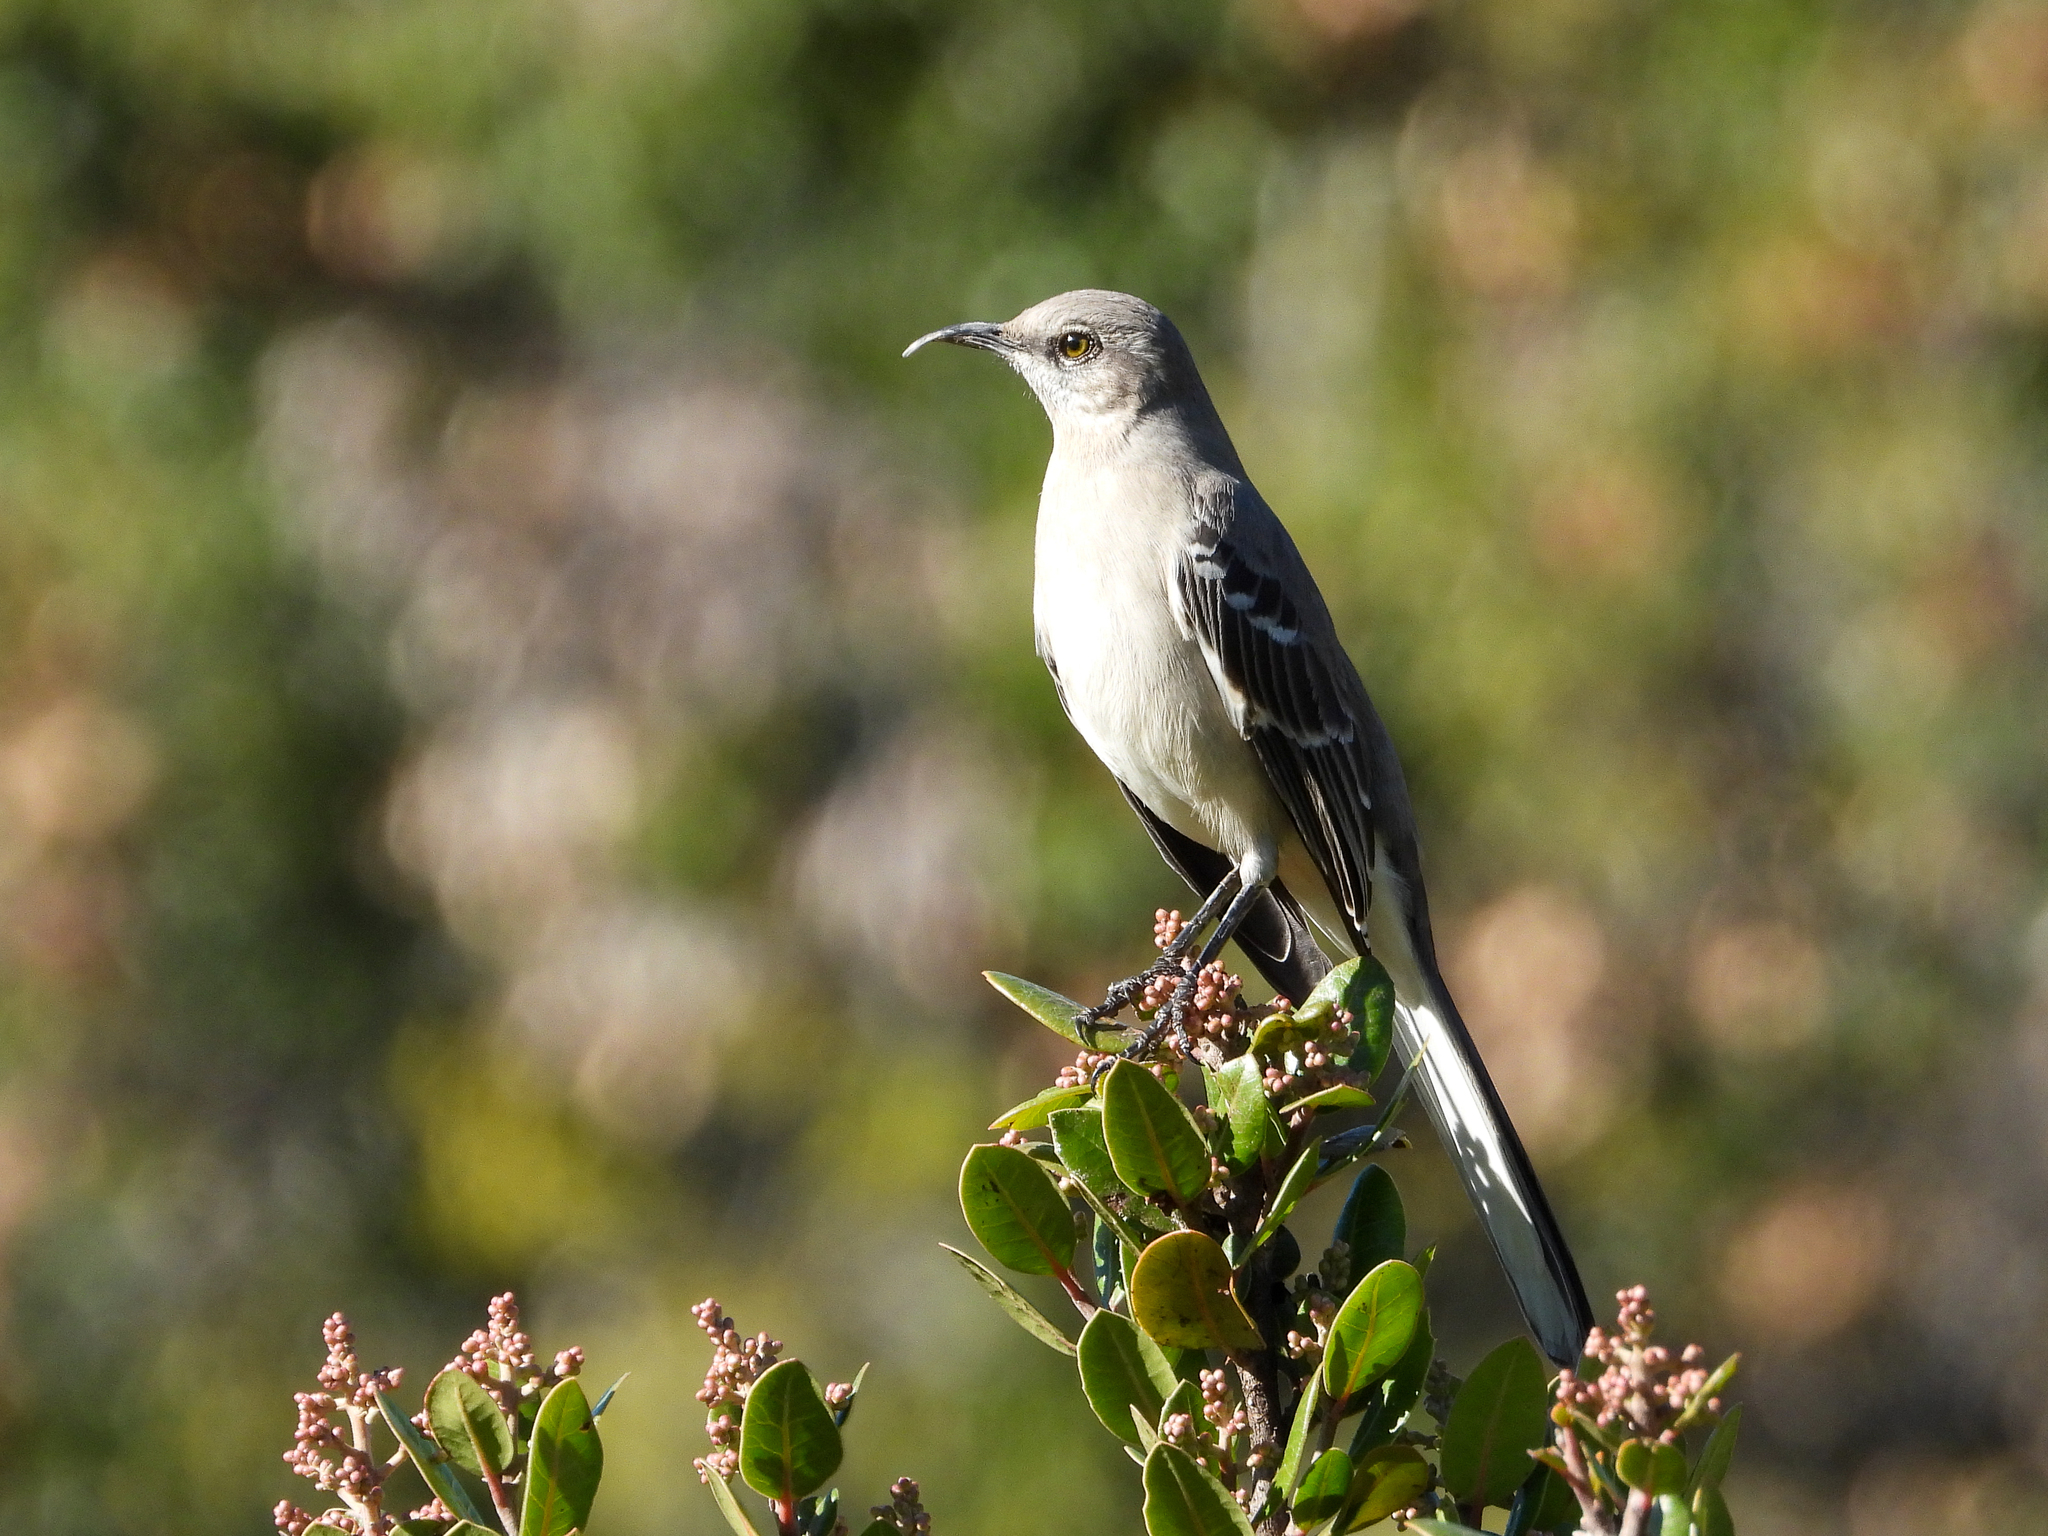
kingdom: Animalia
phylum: Chordata
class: Aves
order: Passeriformes
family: Mimidae
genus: Mimus
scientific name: Mimus polyglottos
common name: Northern mockingbird
